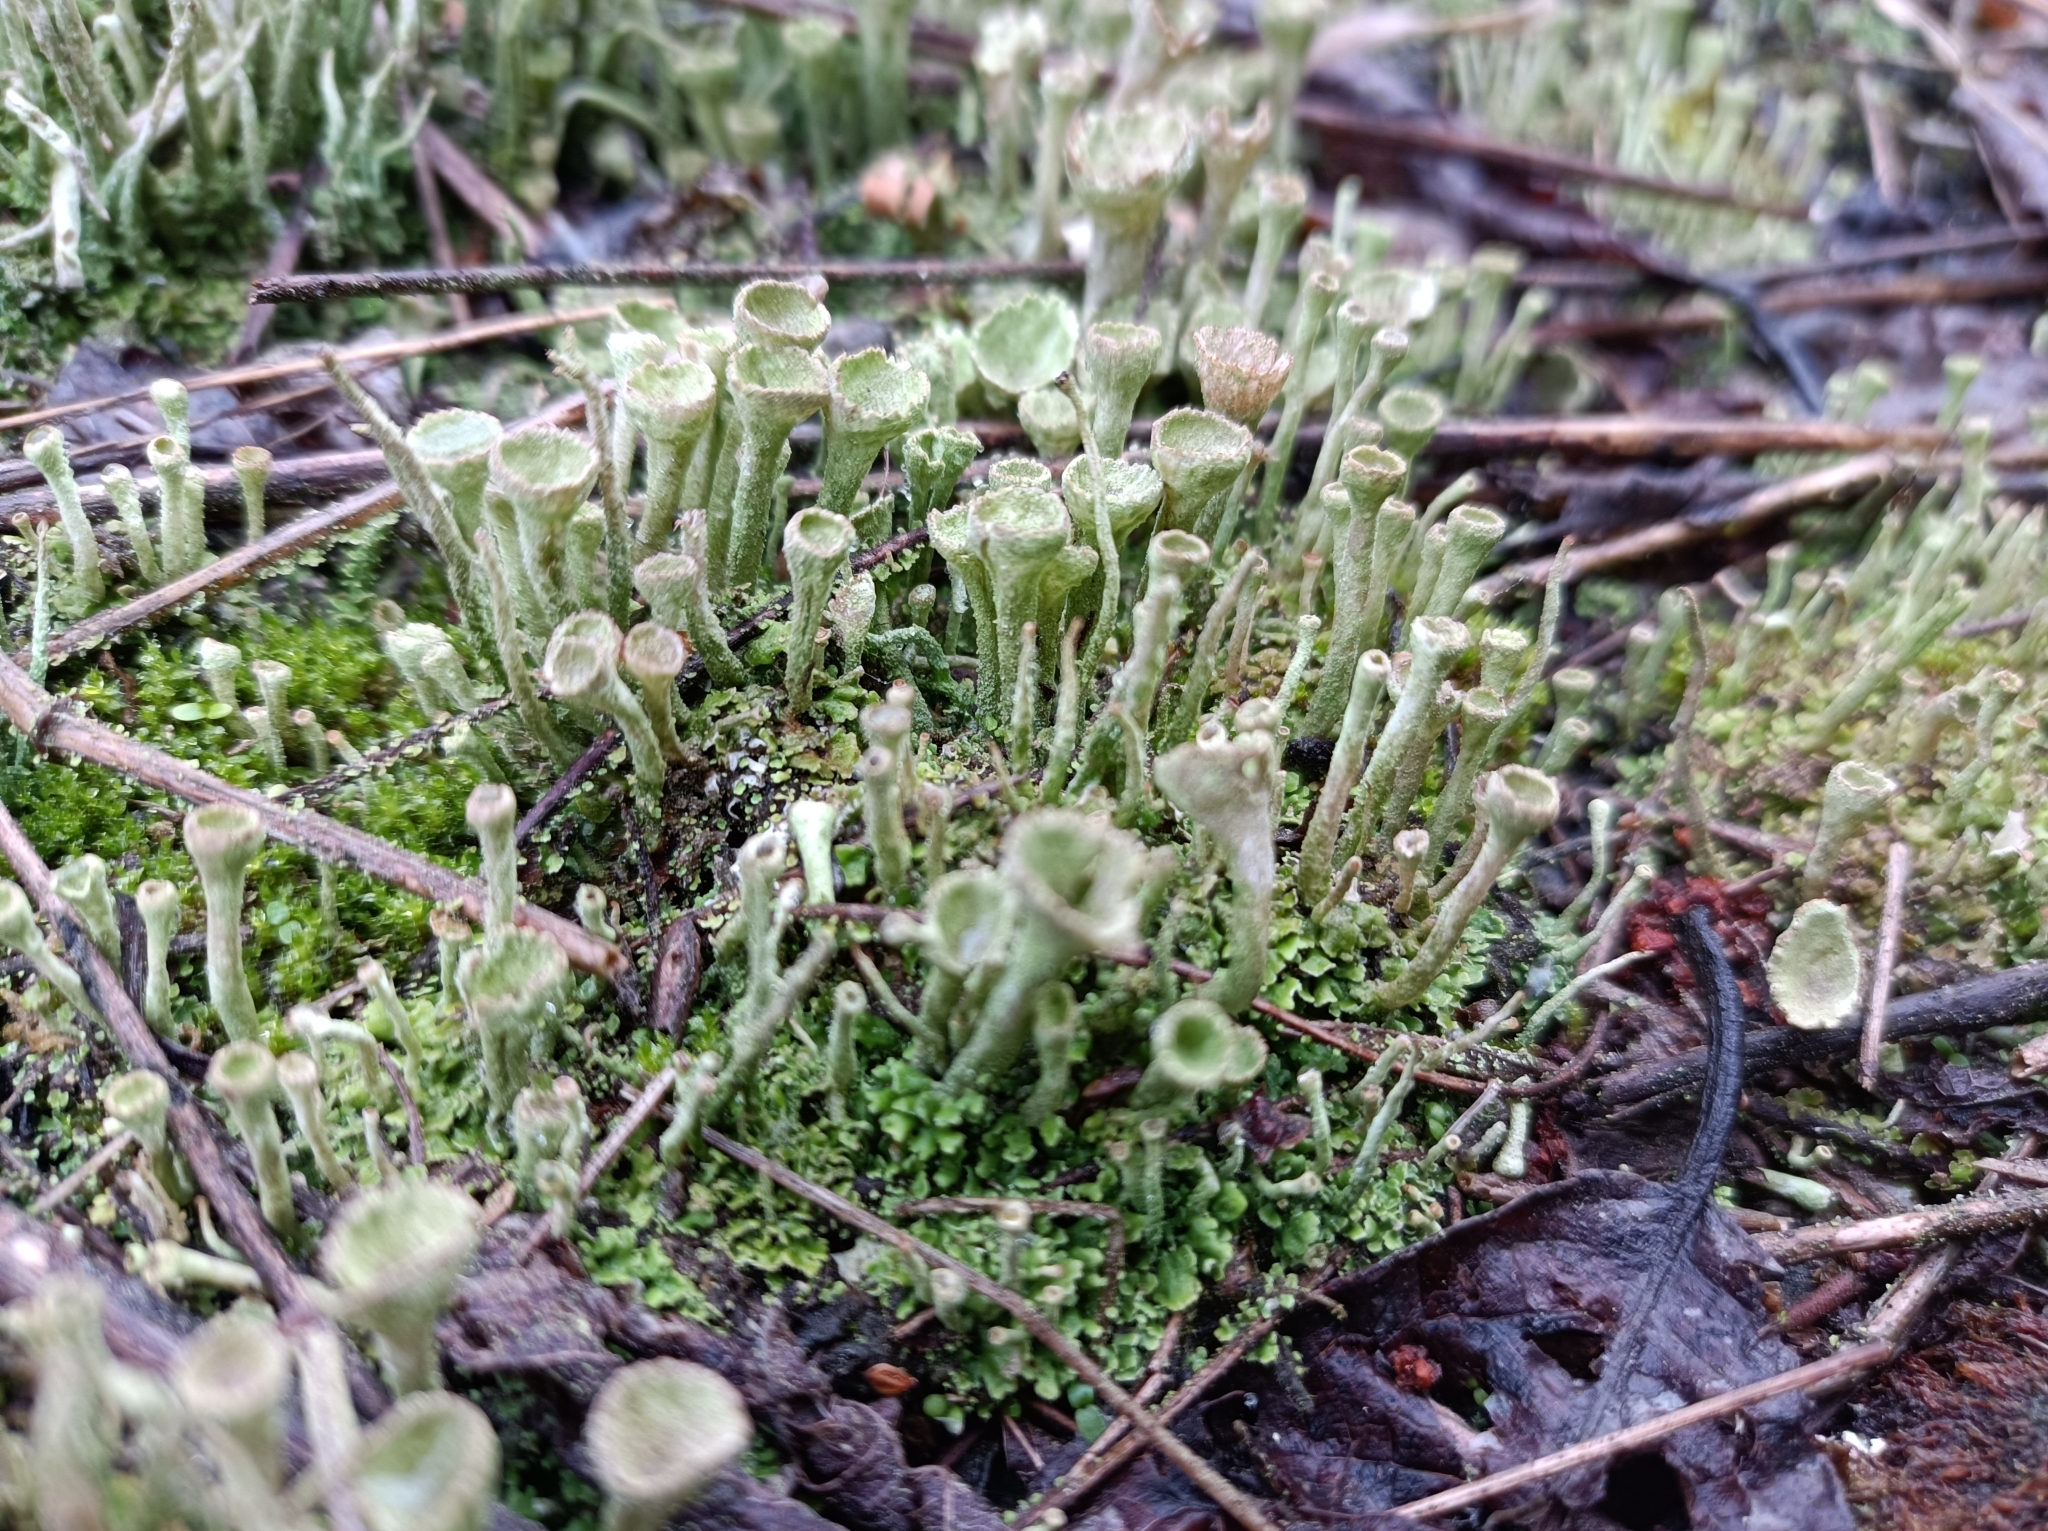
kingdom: Fungi
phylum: Ascomycota
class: Lecanoromycetes
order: Lecanorales
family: Cladoniaceae
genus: Cladonia
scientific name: Cladonia fimbriata
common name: Powdered trumpet lichen
